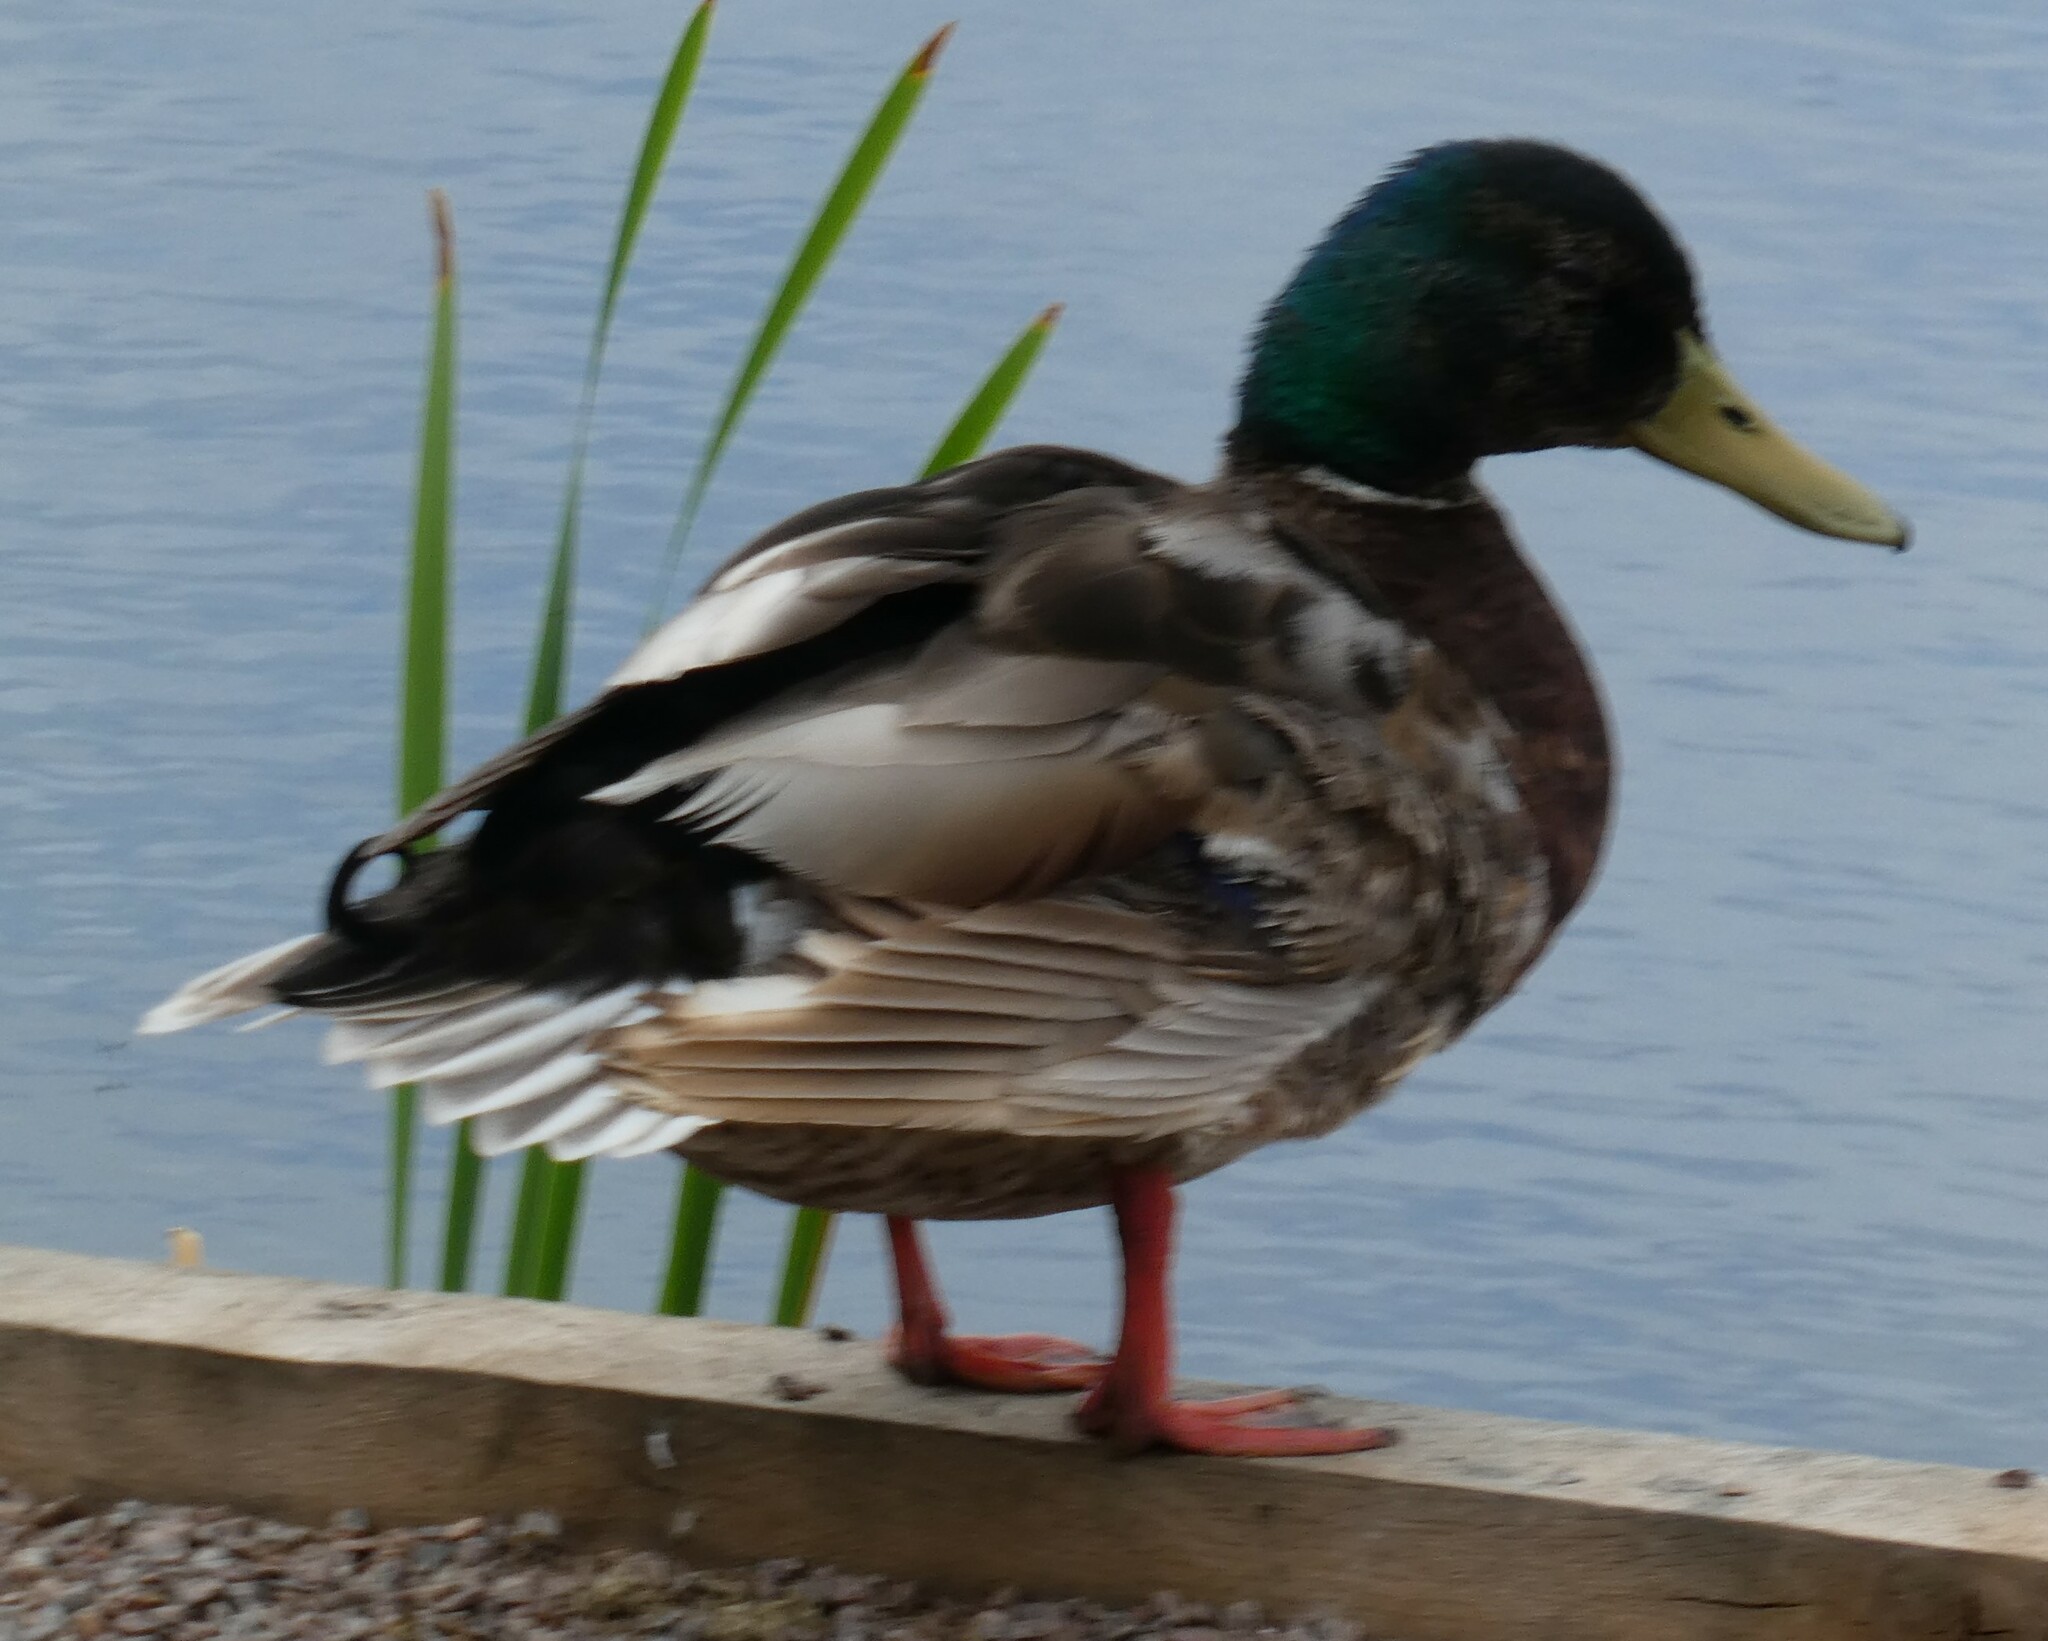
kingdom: Animalia
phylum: Chordata
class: Aves
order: Anseriformes
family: Anatidae
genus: Anas
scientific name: Anas platyrhynchos
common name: Mallard
